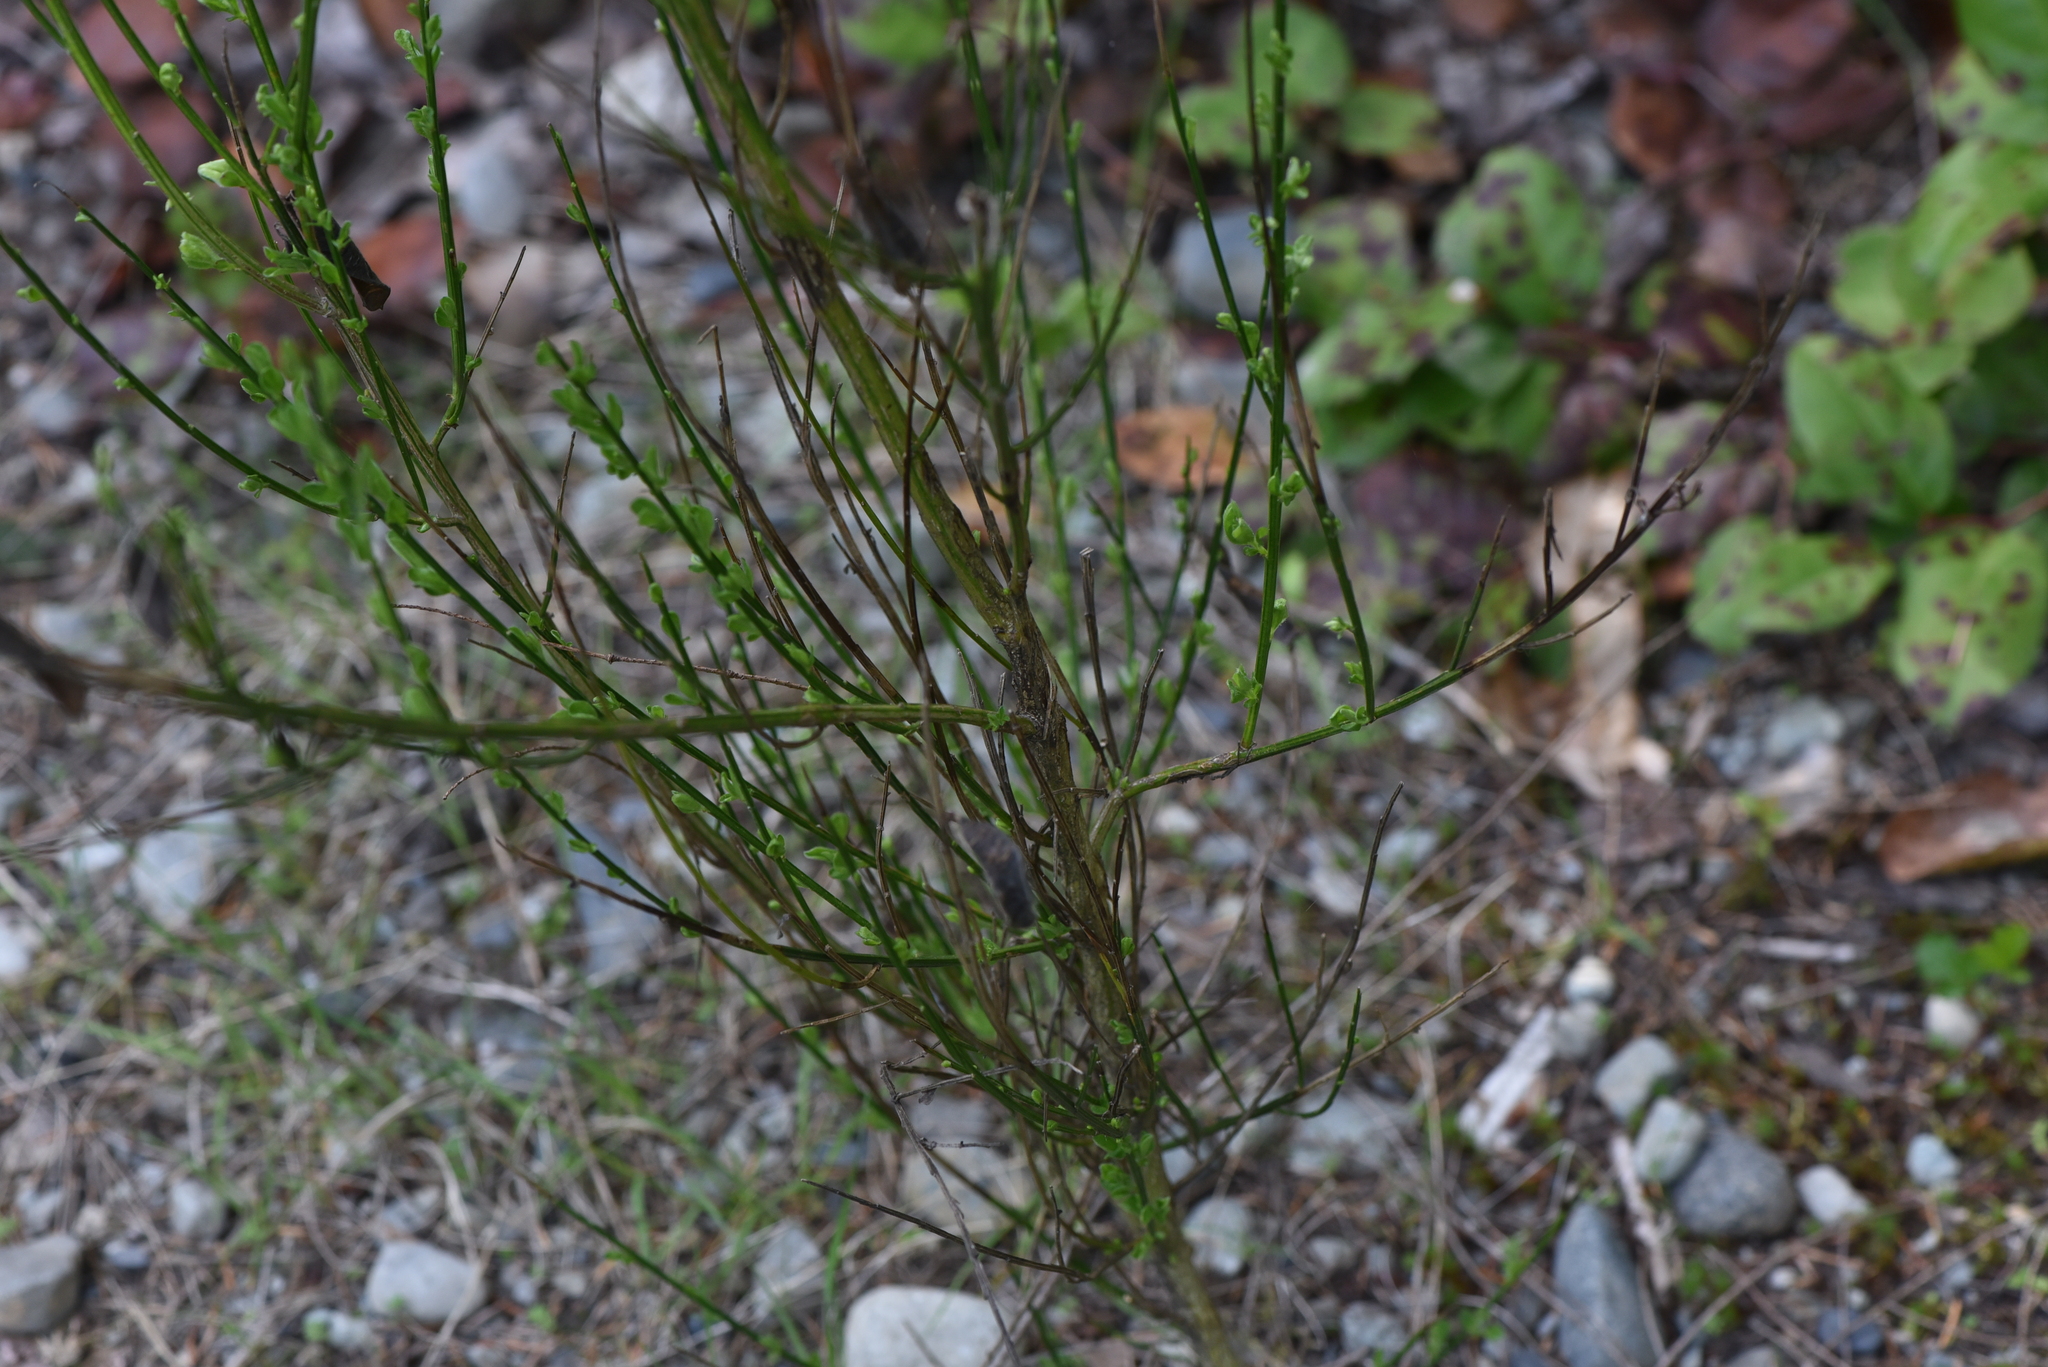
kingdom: Plantae
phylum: Tracheophyta
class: Magnoliopsida
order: Fabales
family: Fabaceae
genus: Cytisus
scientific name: Cytisus scoparius
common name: Scotch broom
